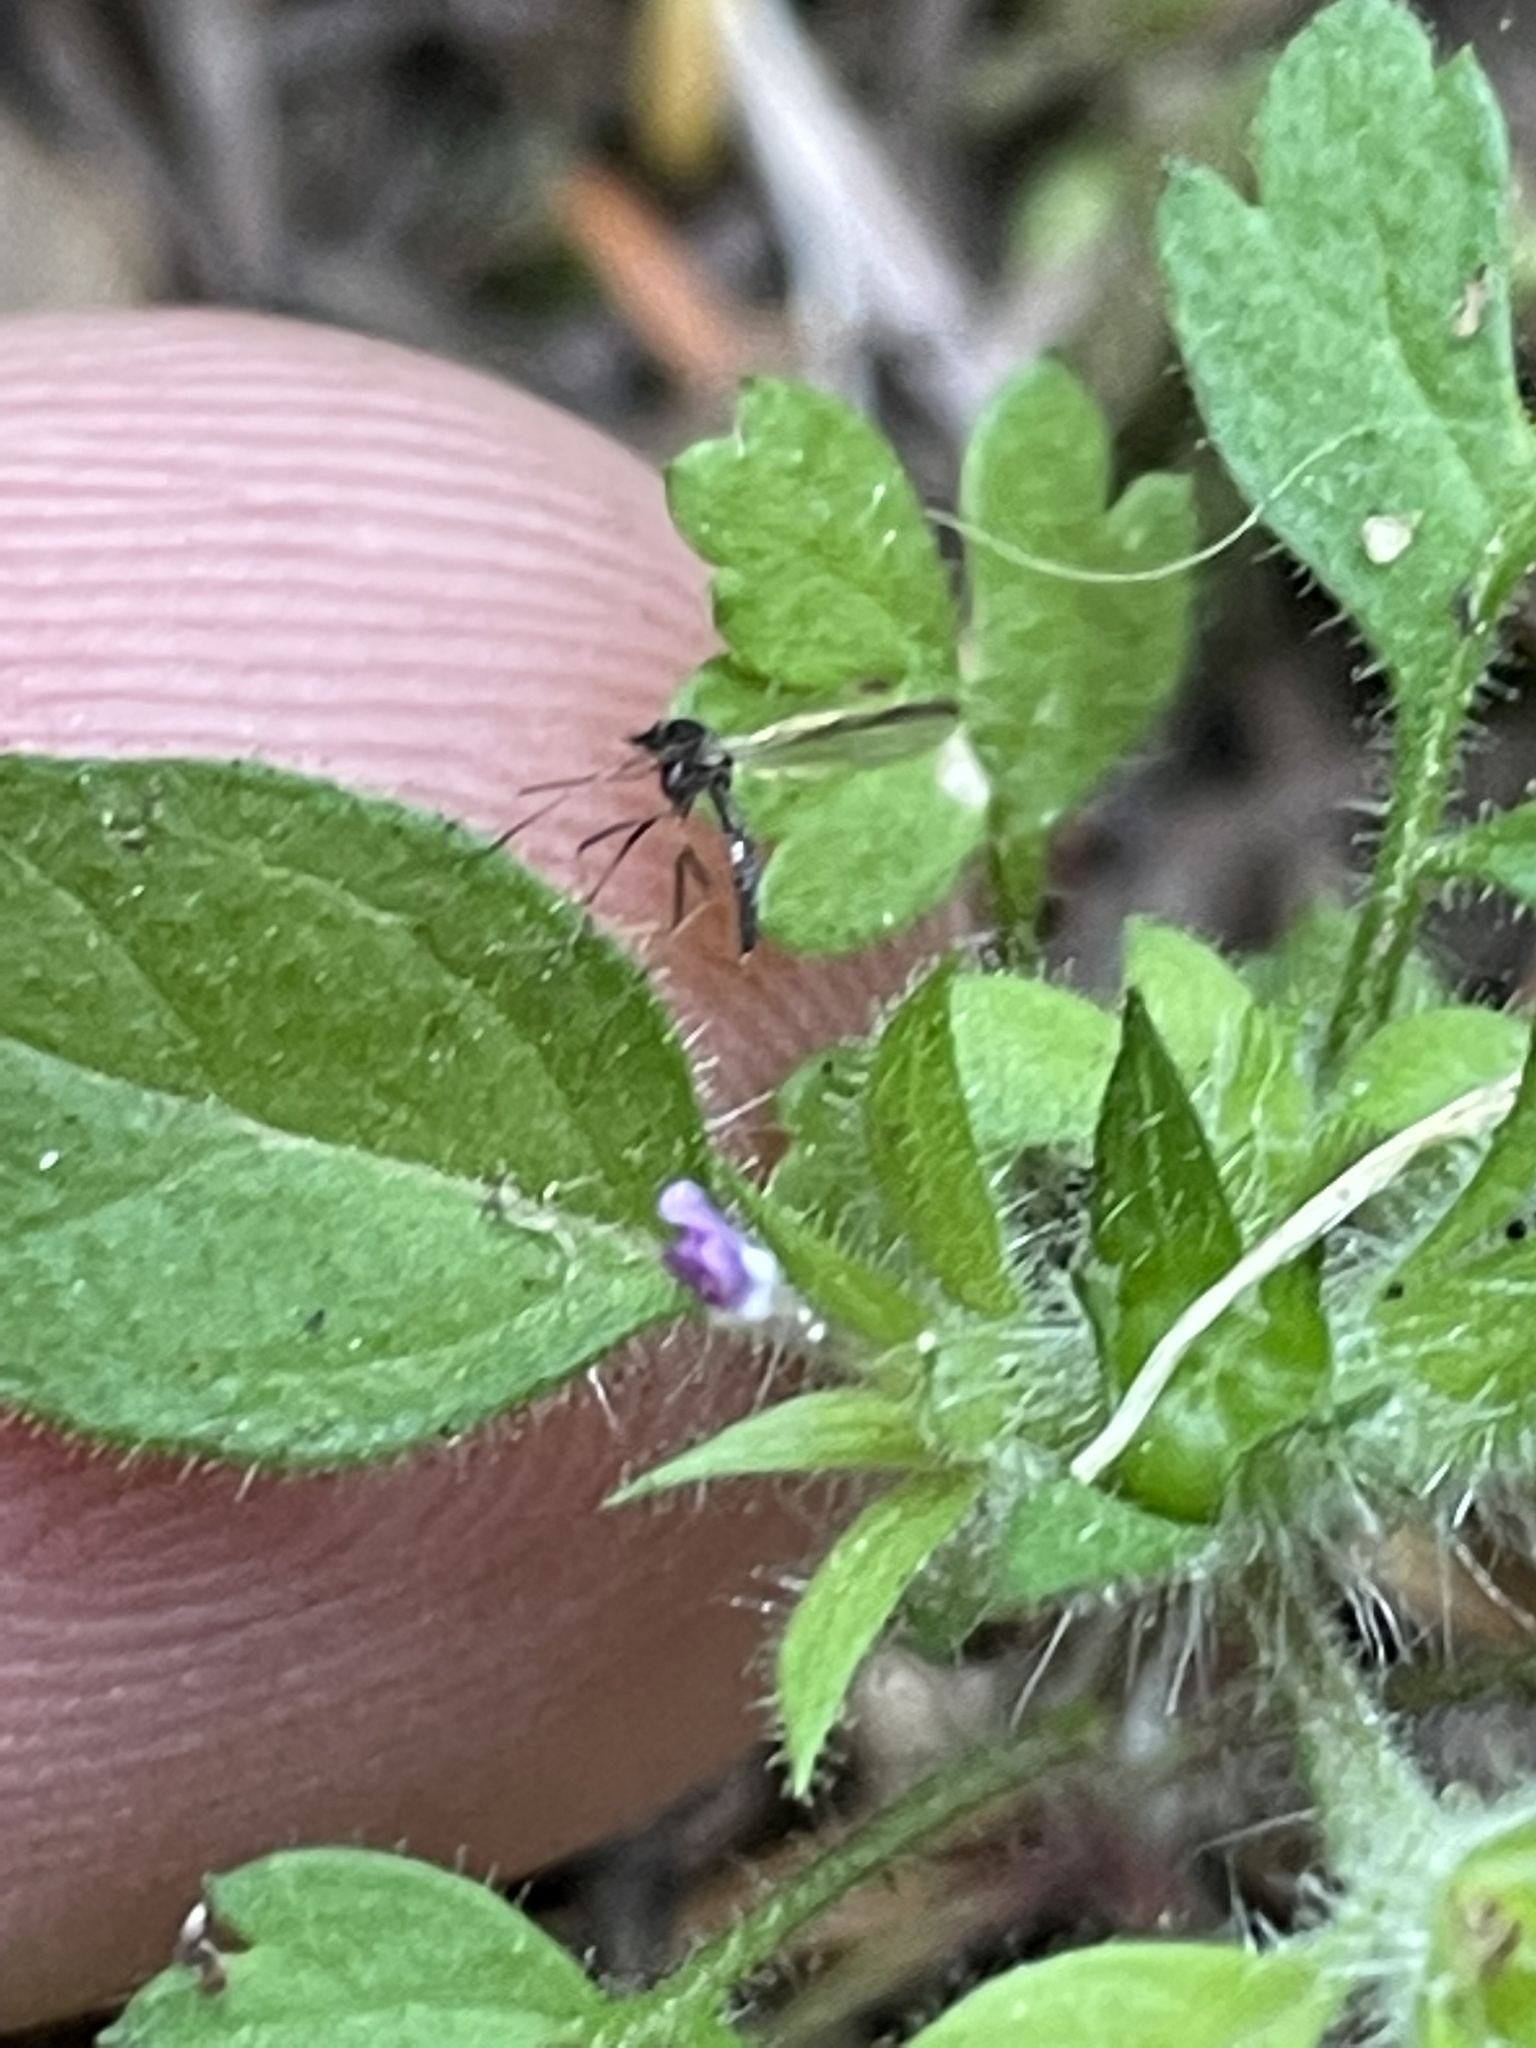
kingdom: Plantae
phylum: Tracheophyta
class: Magnoliopsida
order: Ericales
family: Polemoniaceae
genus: Collomia
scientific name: Collomia heterophylla
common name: Variable-leaved collomia
